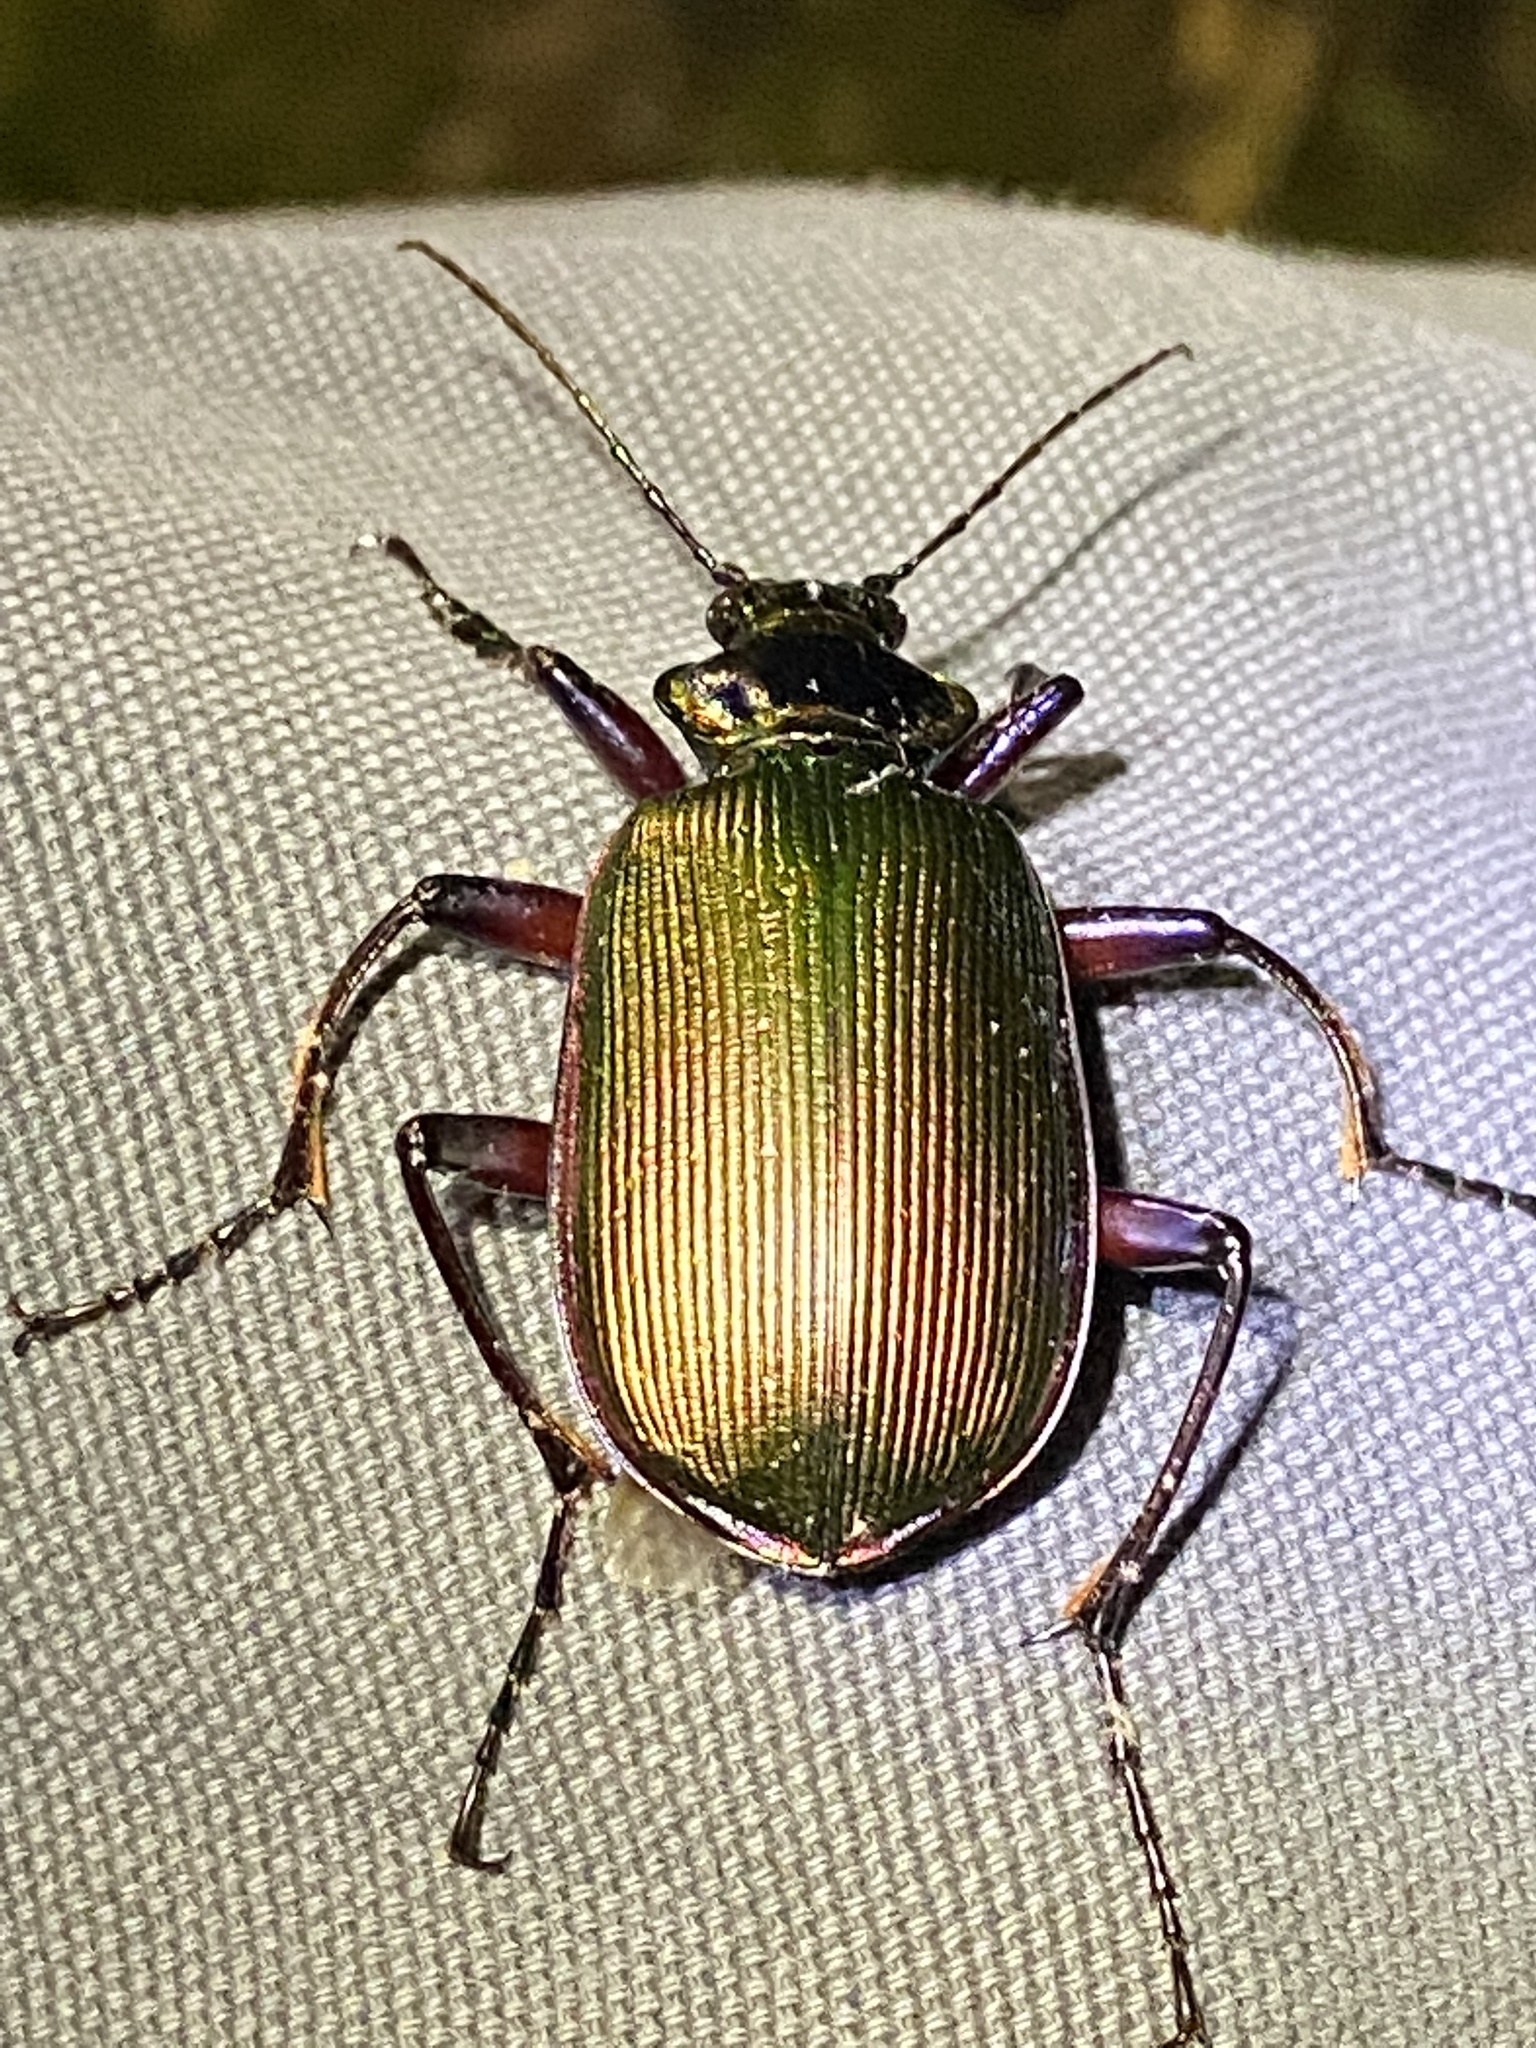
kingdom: Animalia
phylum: Arthropoda
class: Insecta
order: Coleoptera
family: Carabidae
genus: Calosoma
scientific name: Calosoma scrutator
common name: Fiery searcher beetle
